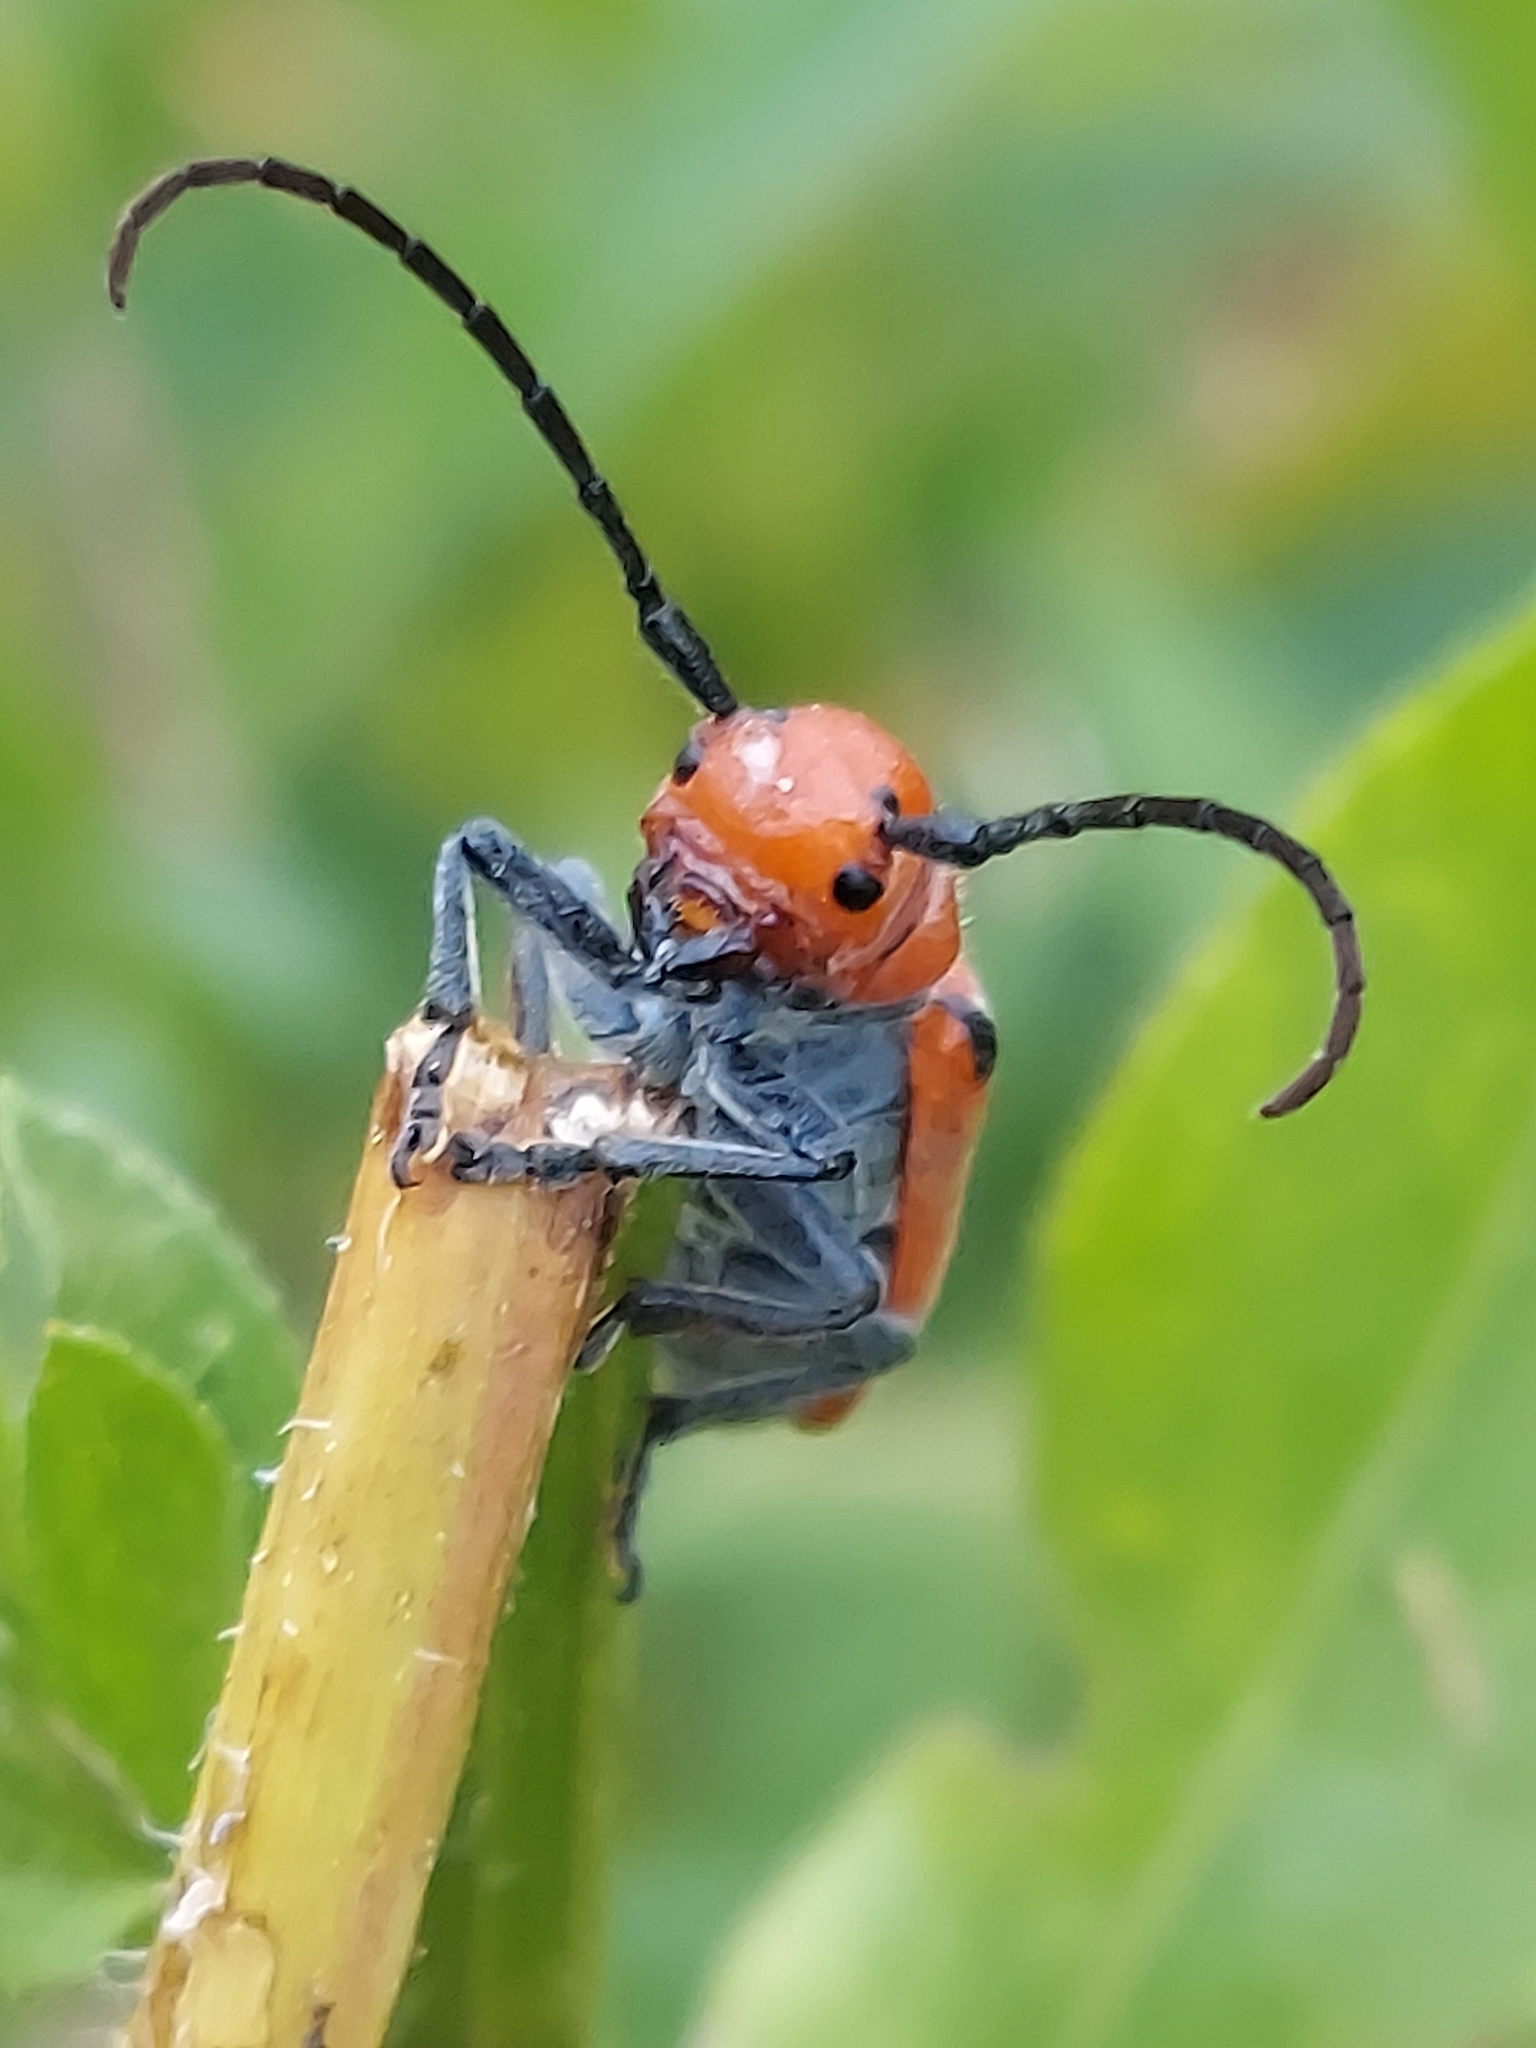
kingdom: Animalia
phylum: Arthropoda
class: Insecta
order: Coleoptera
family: Cerambycidae
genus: Tetraopes
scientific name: Tetraopes tetrophthalmus
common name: Red milkweed beetle
